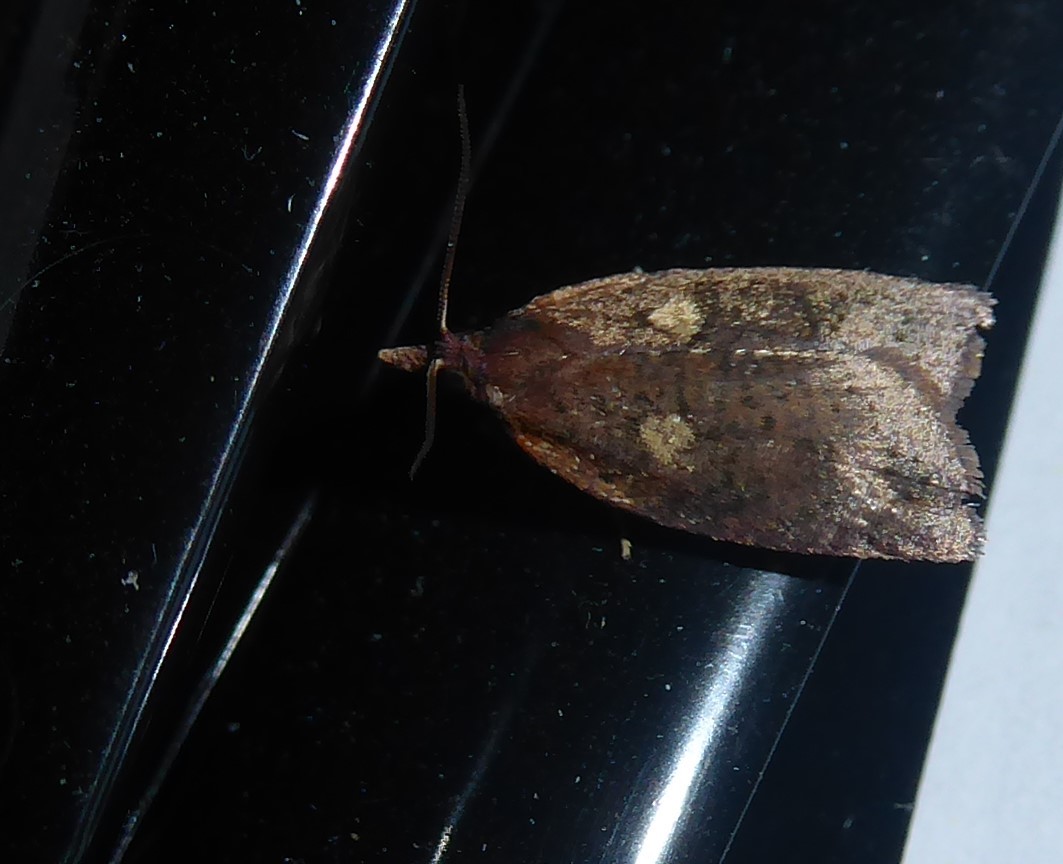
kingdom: Animalia
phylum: Arthropoda
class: Insecta
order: Lepidoptera
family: Tortricidae
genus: Planotortrix
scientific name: Planotortrix excessana
